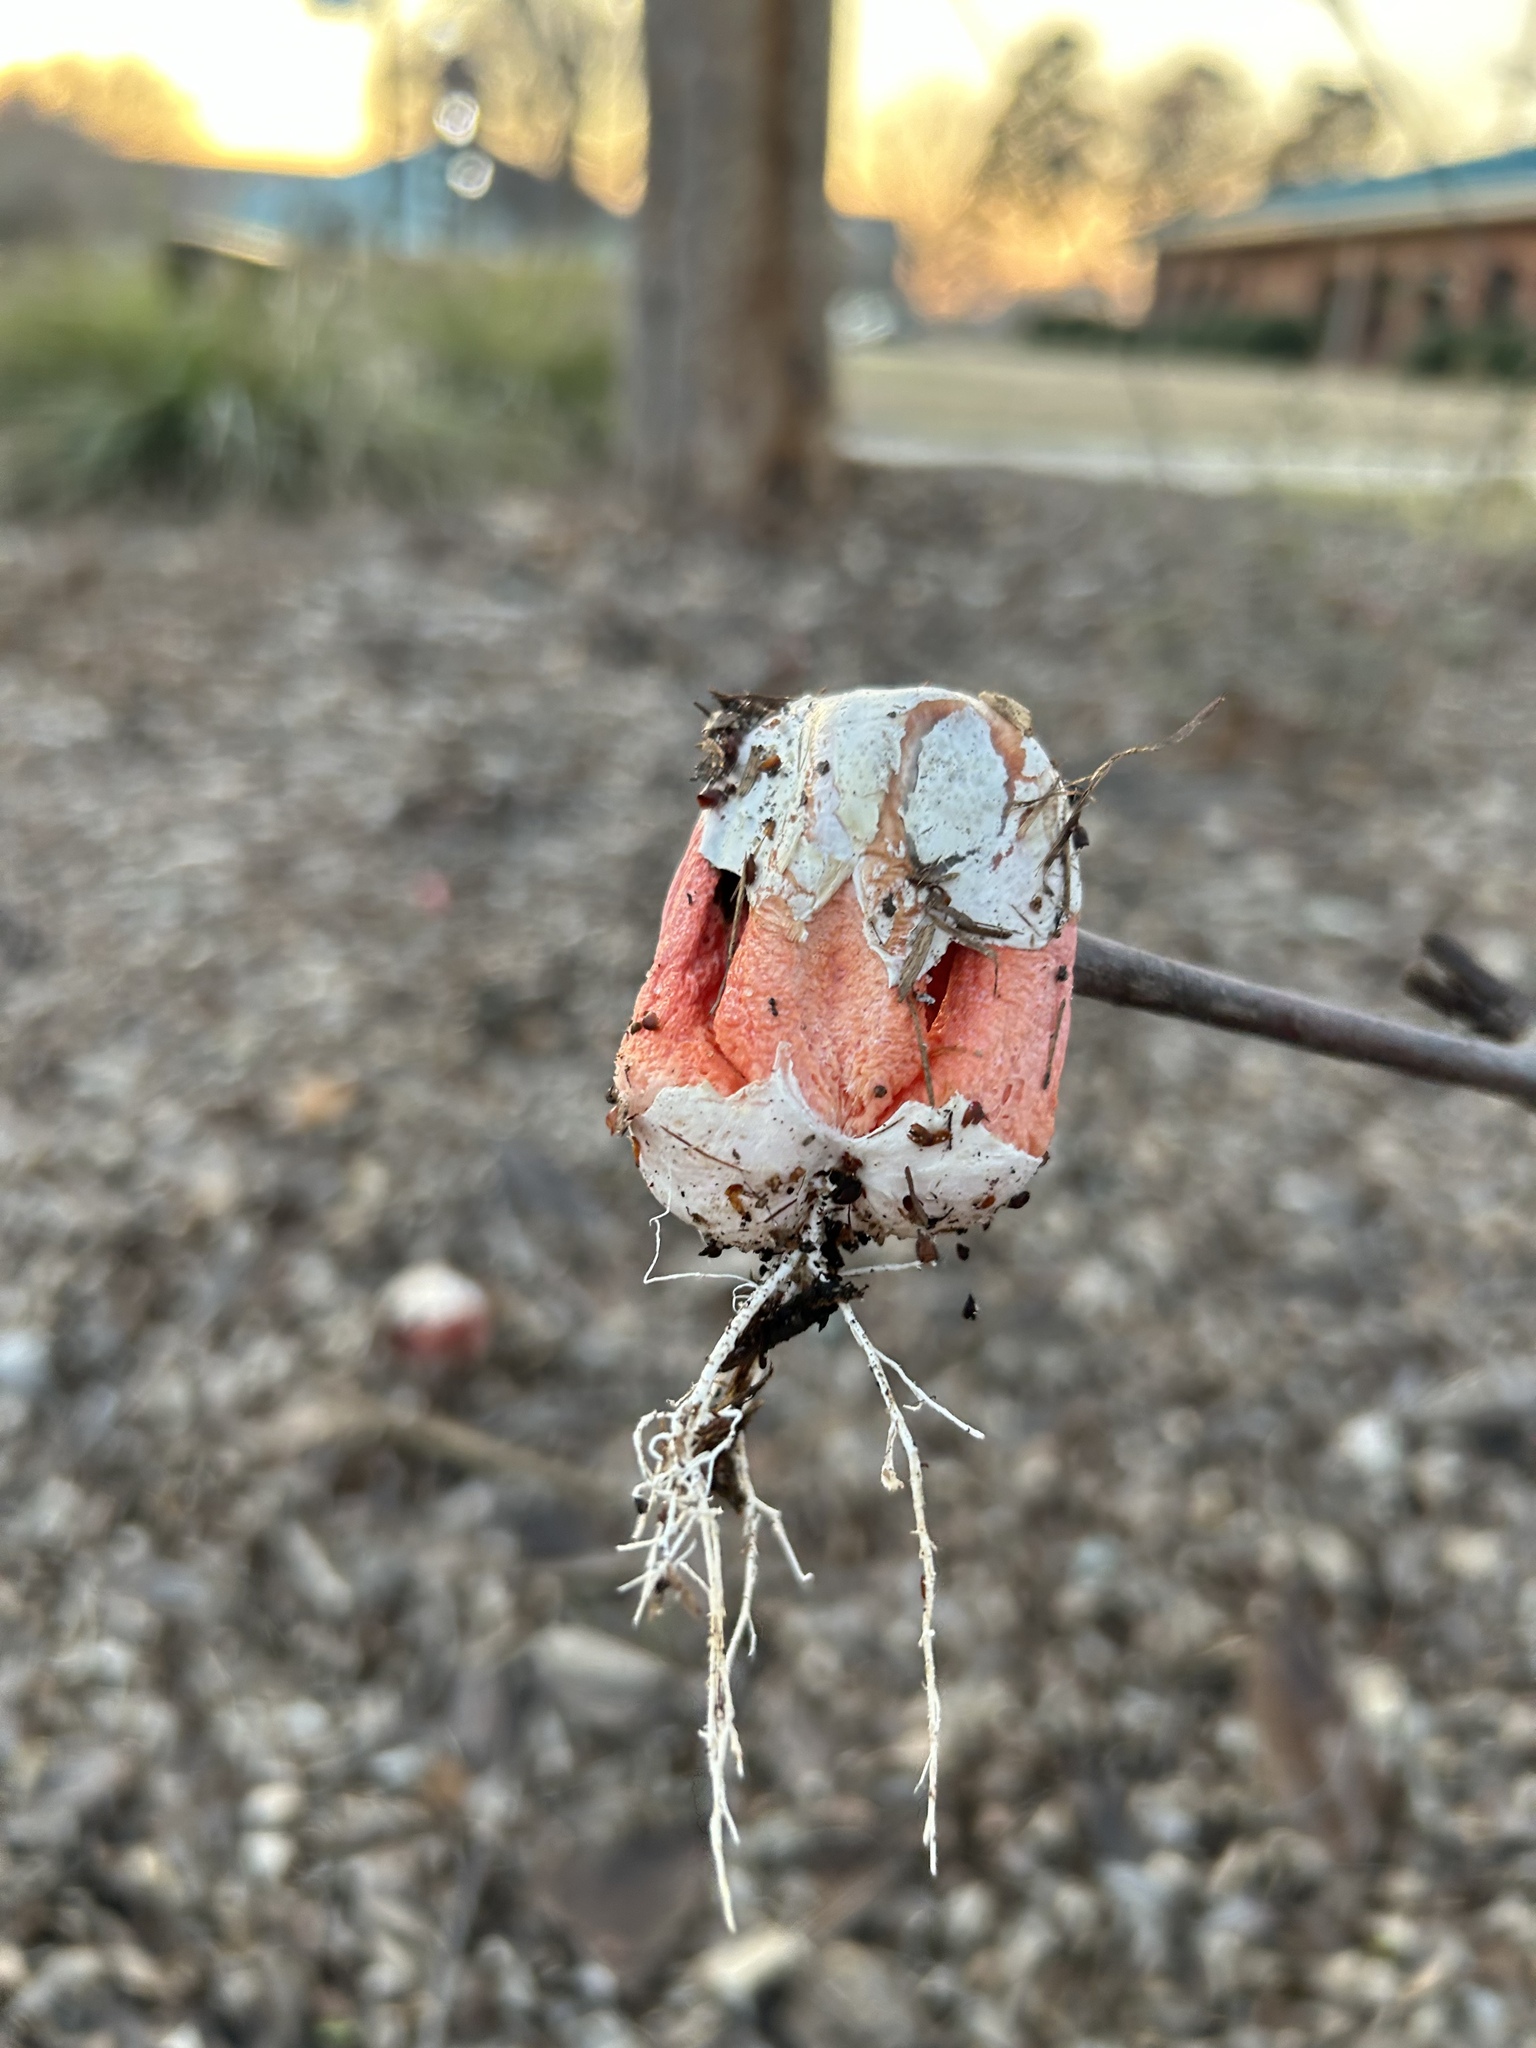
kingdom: Fungi
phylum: Basidiomycota
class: Agaricomycetes
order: Phallales
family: Phallaceae
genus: Clathrus
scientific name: Clathrus columnatus
